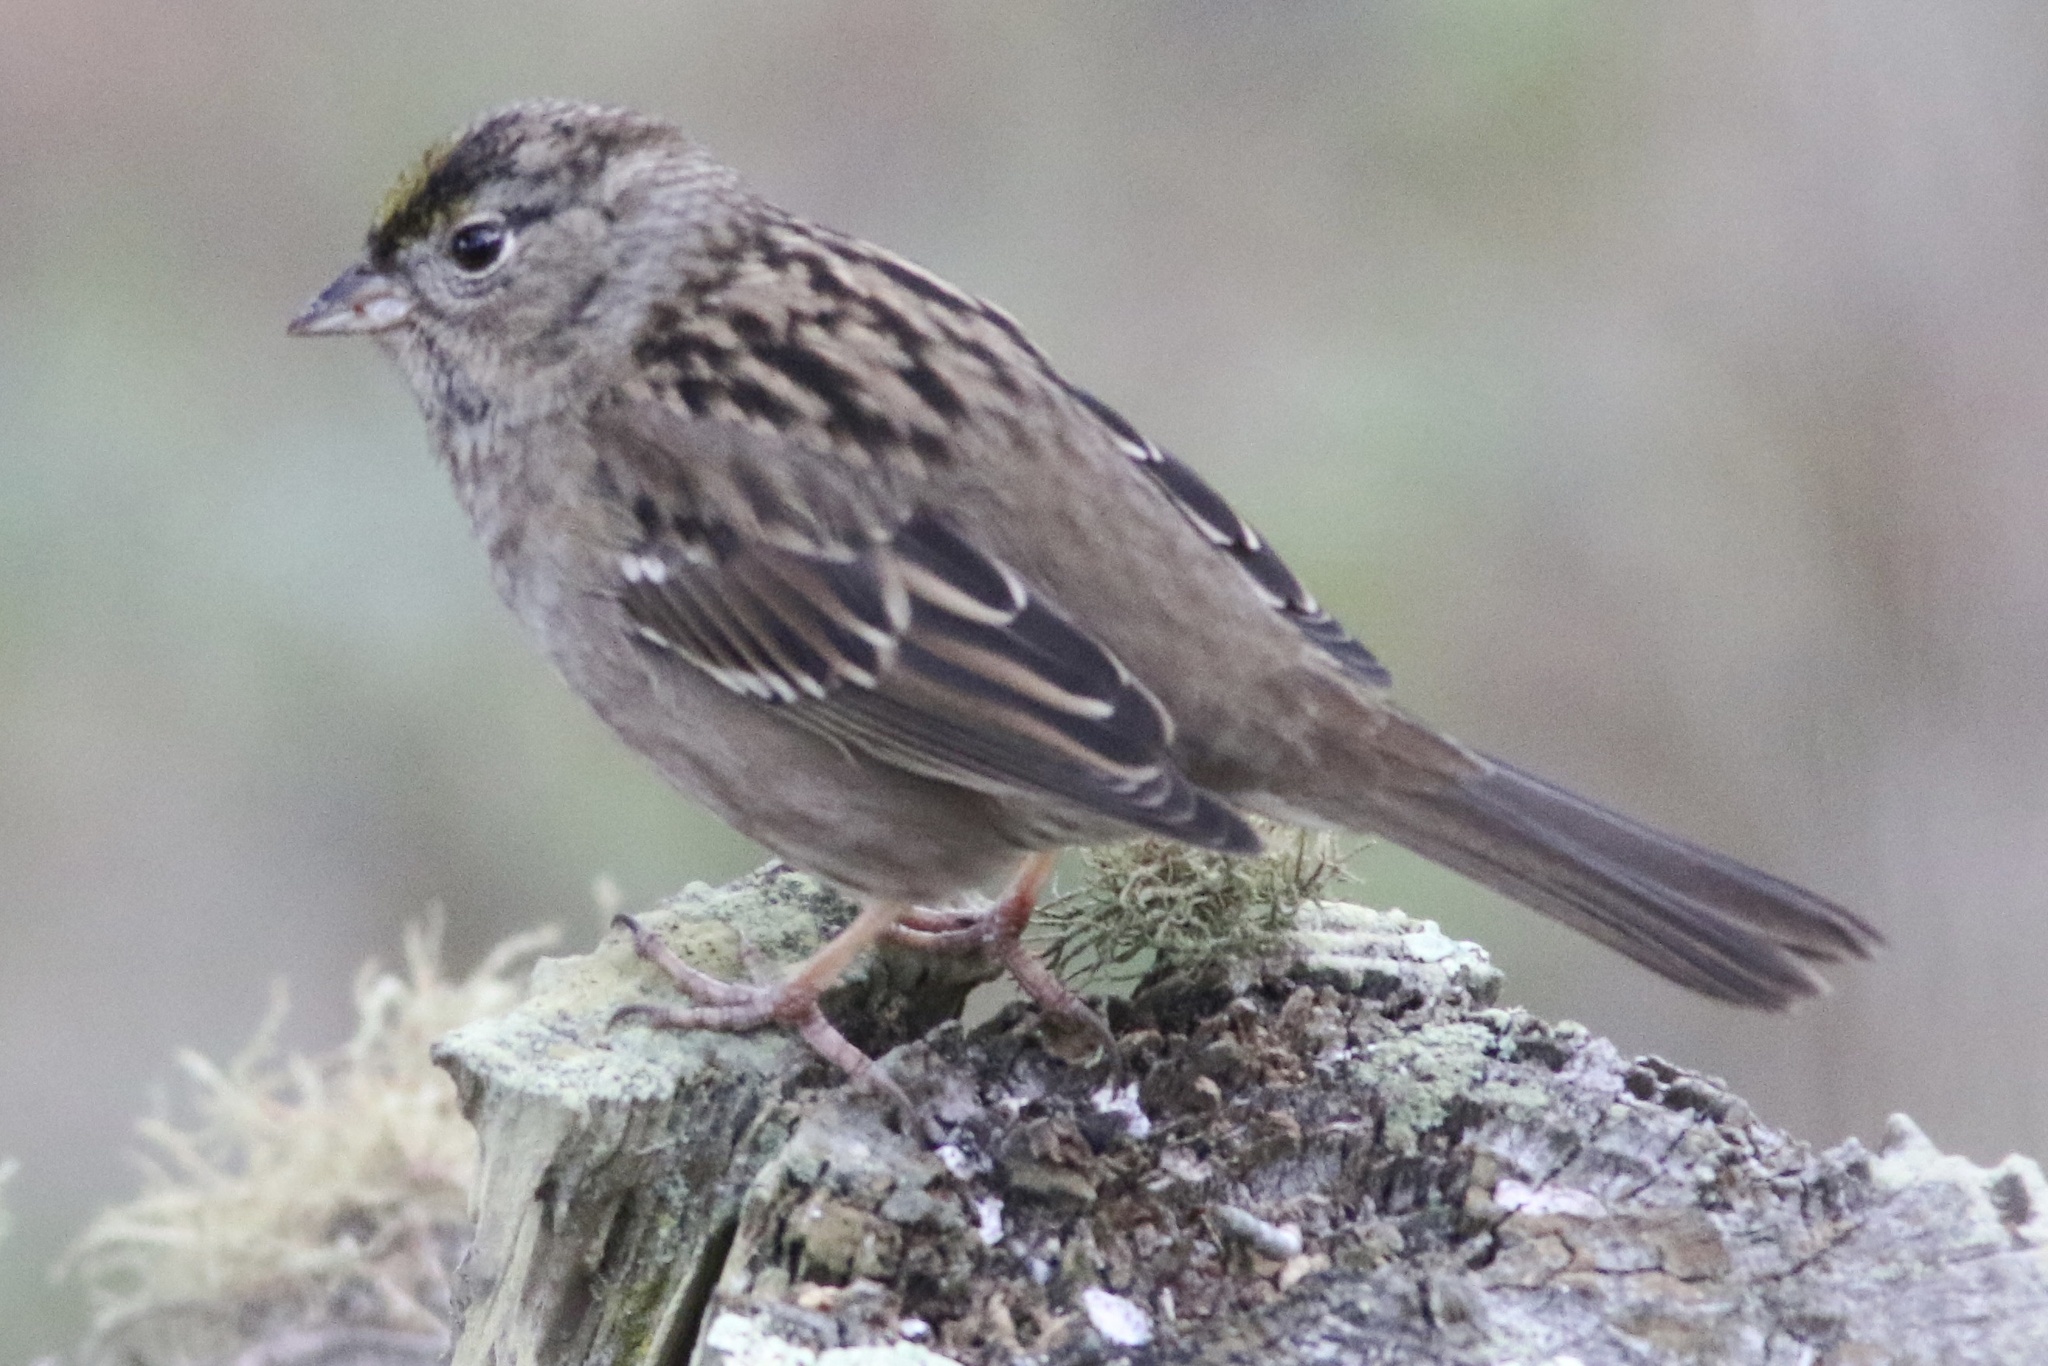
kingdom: Animalia
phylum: Chordata
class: Aves
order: Passeriformes
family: Passerellidae
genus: Zonotrichia
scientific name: Zonotrichia atricapilla
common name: Golden-crowned sparrow
